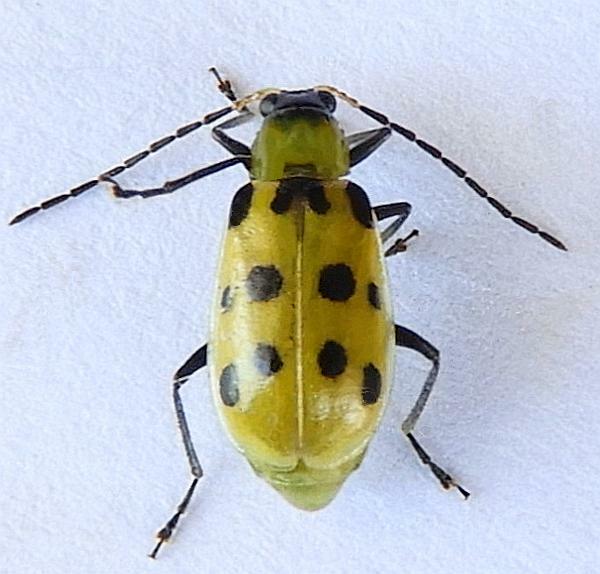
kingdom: Animalia
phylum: Arthropoda
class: Insecta
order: Coleoptera
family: Chrysomelidae
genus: Diabrotica
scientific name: Diabrotica undecimpunctata
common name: Spotted cucumber beetle
